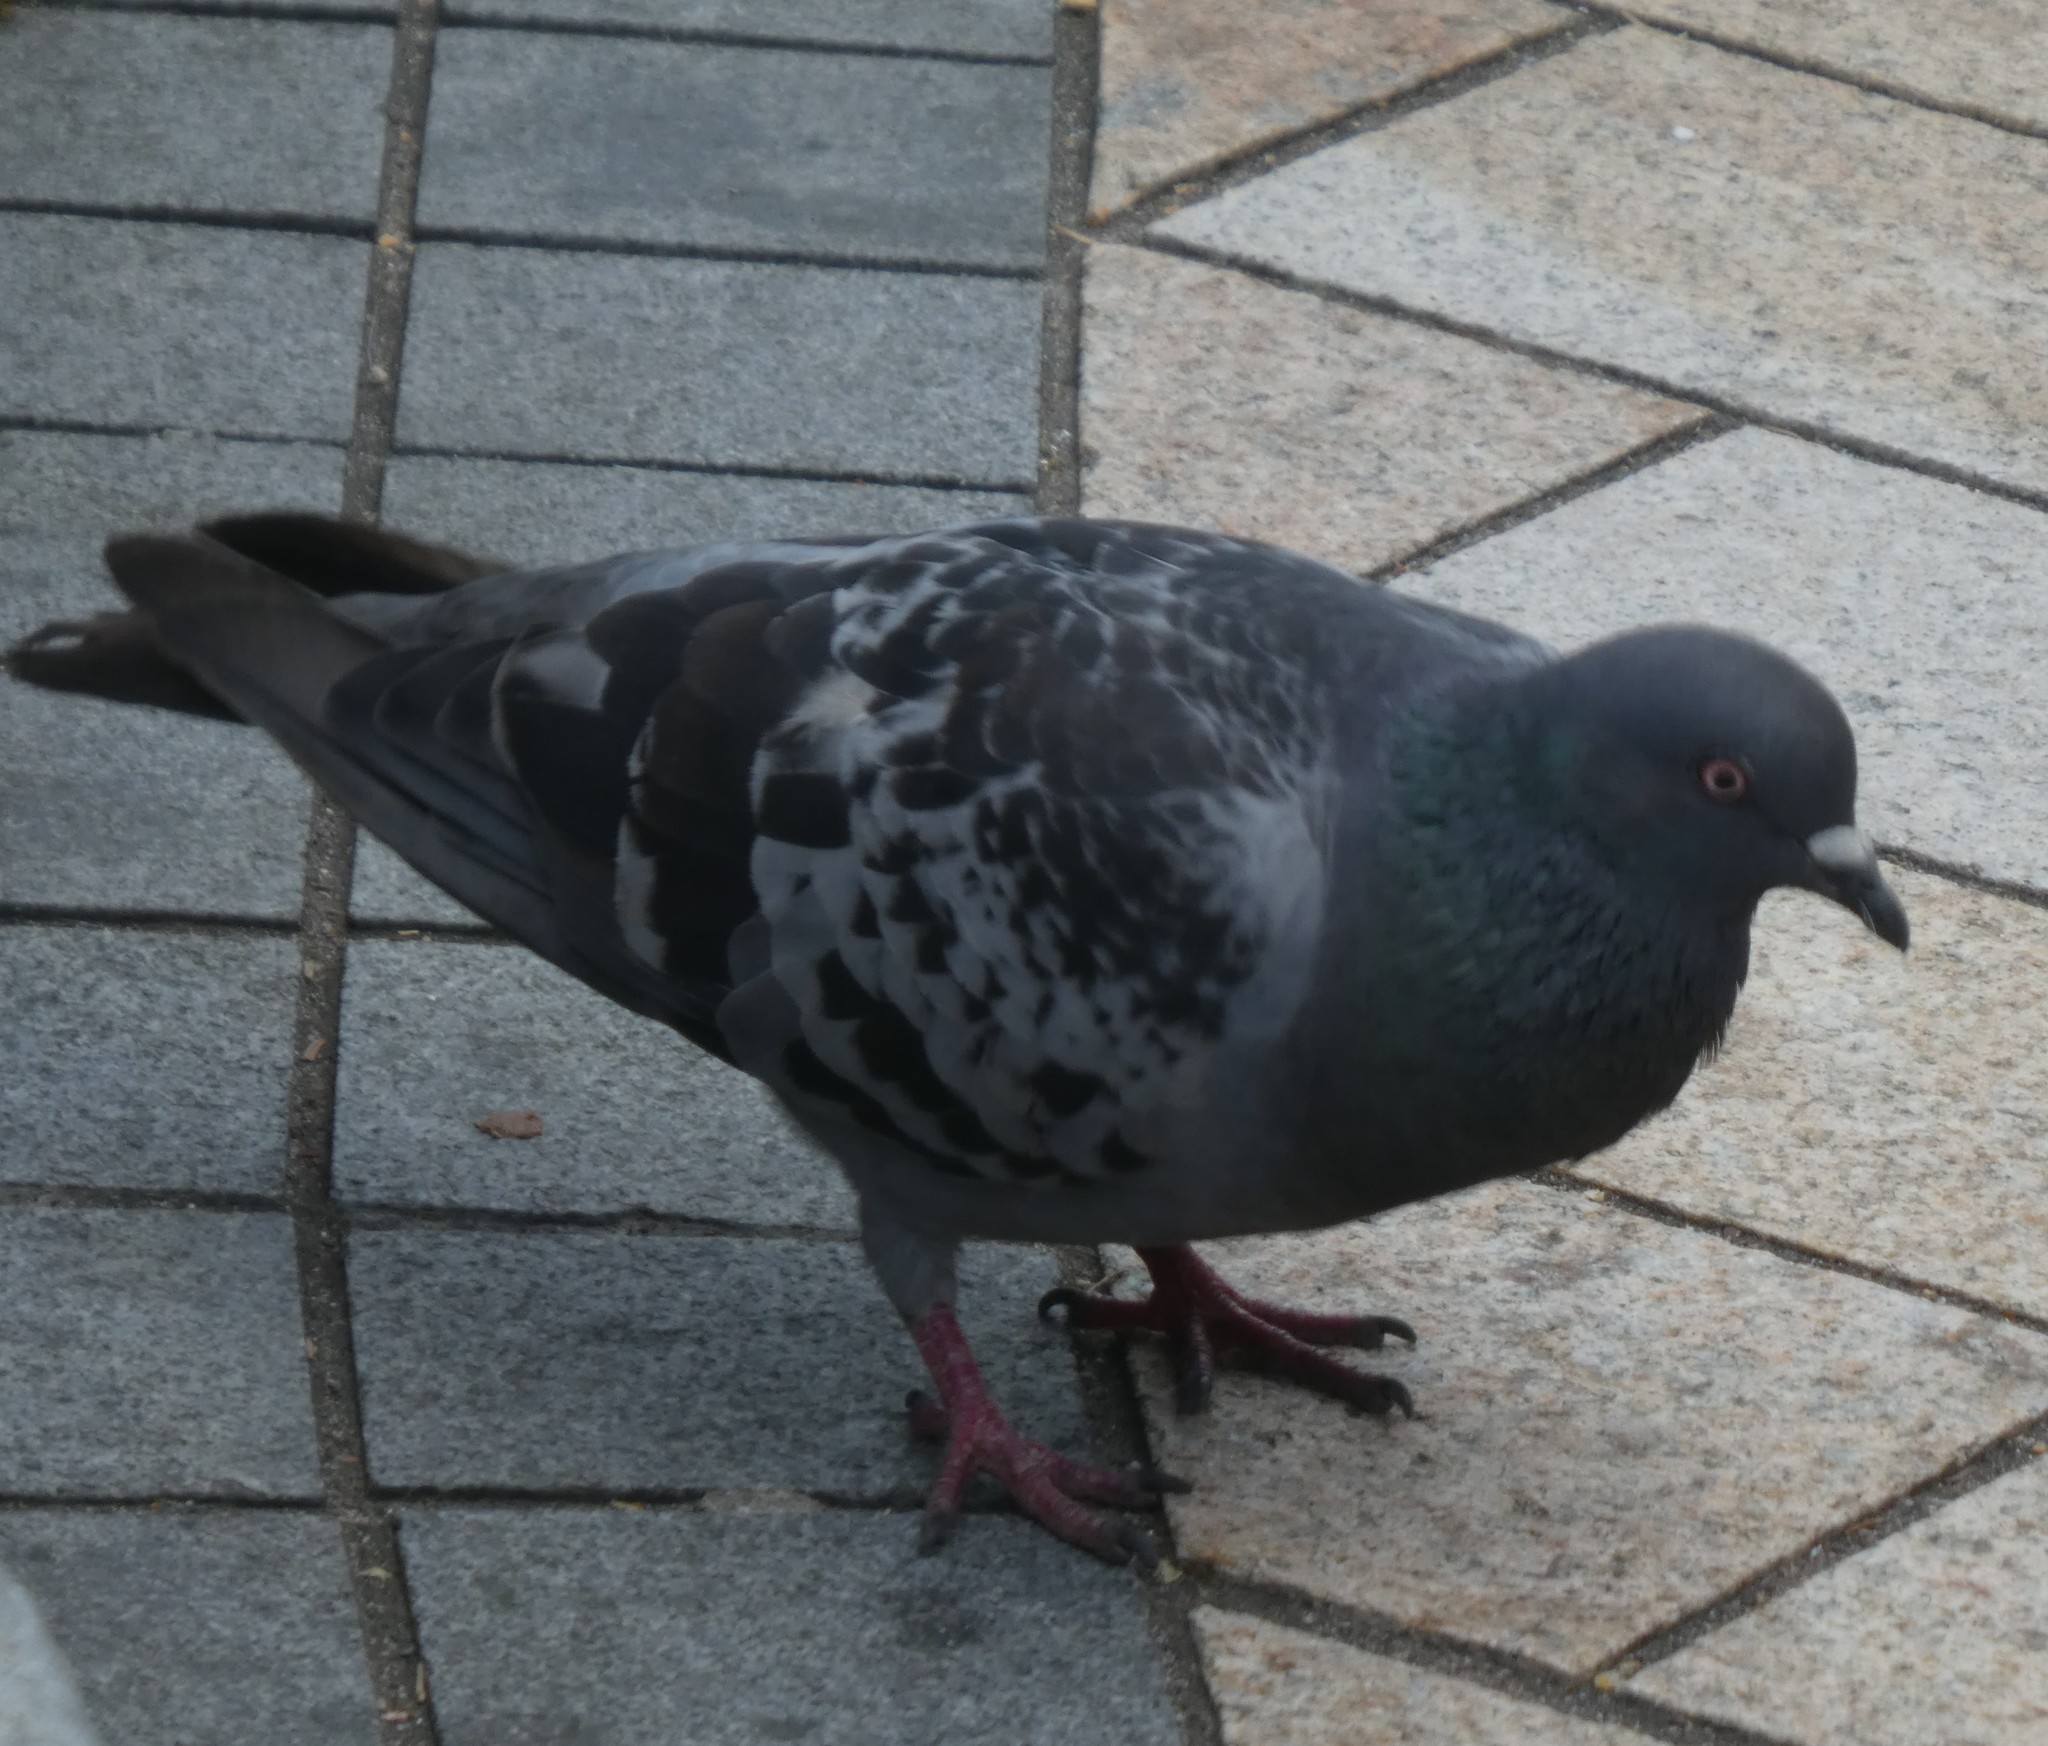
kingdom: Animalia
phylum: Chordata
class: Aves
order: Columbiformes
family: Columbidae
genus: Columba
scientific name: Columba livia
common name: Rock pigeon
